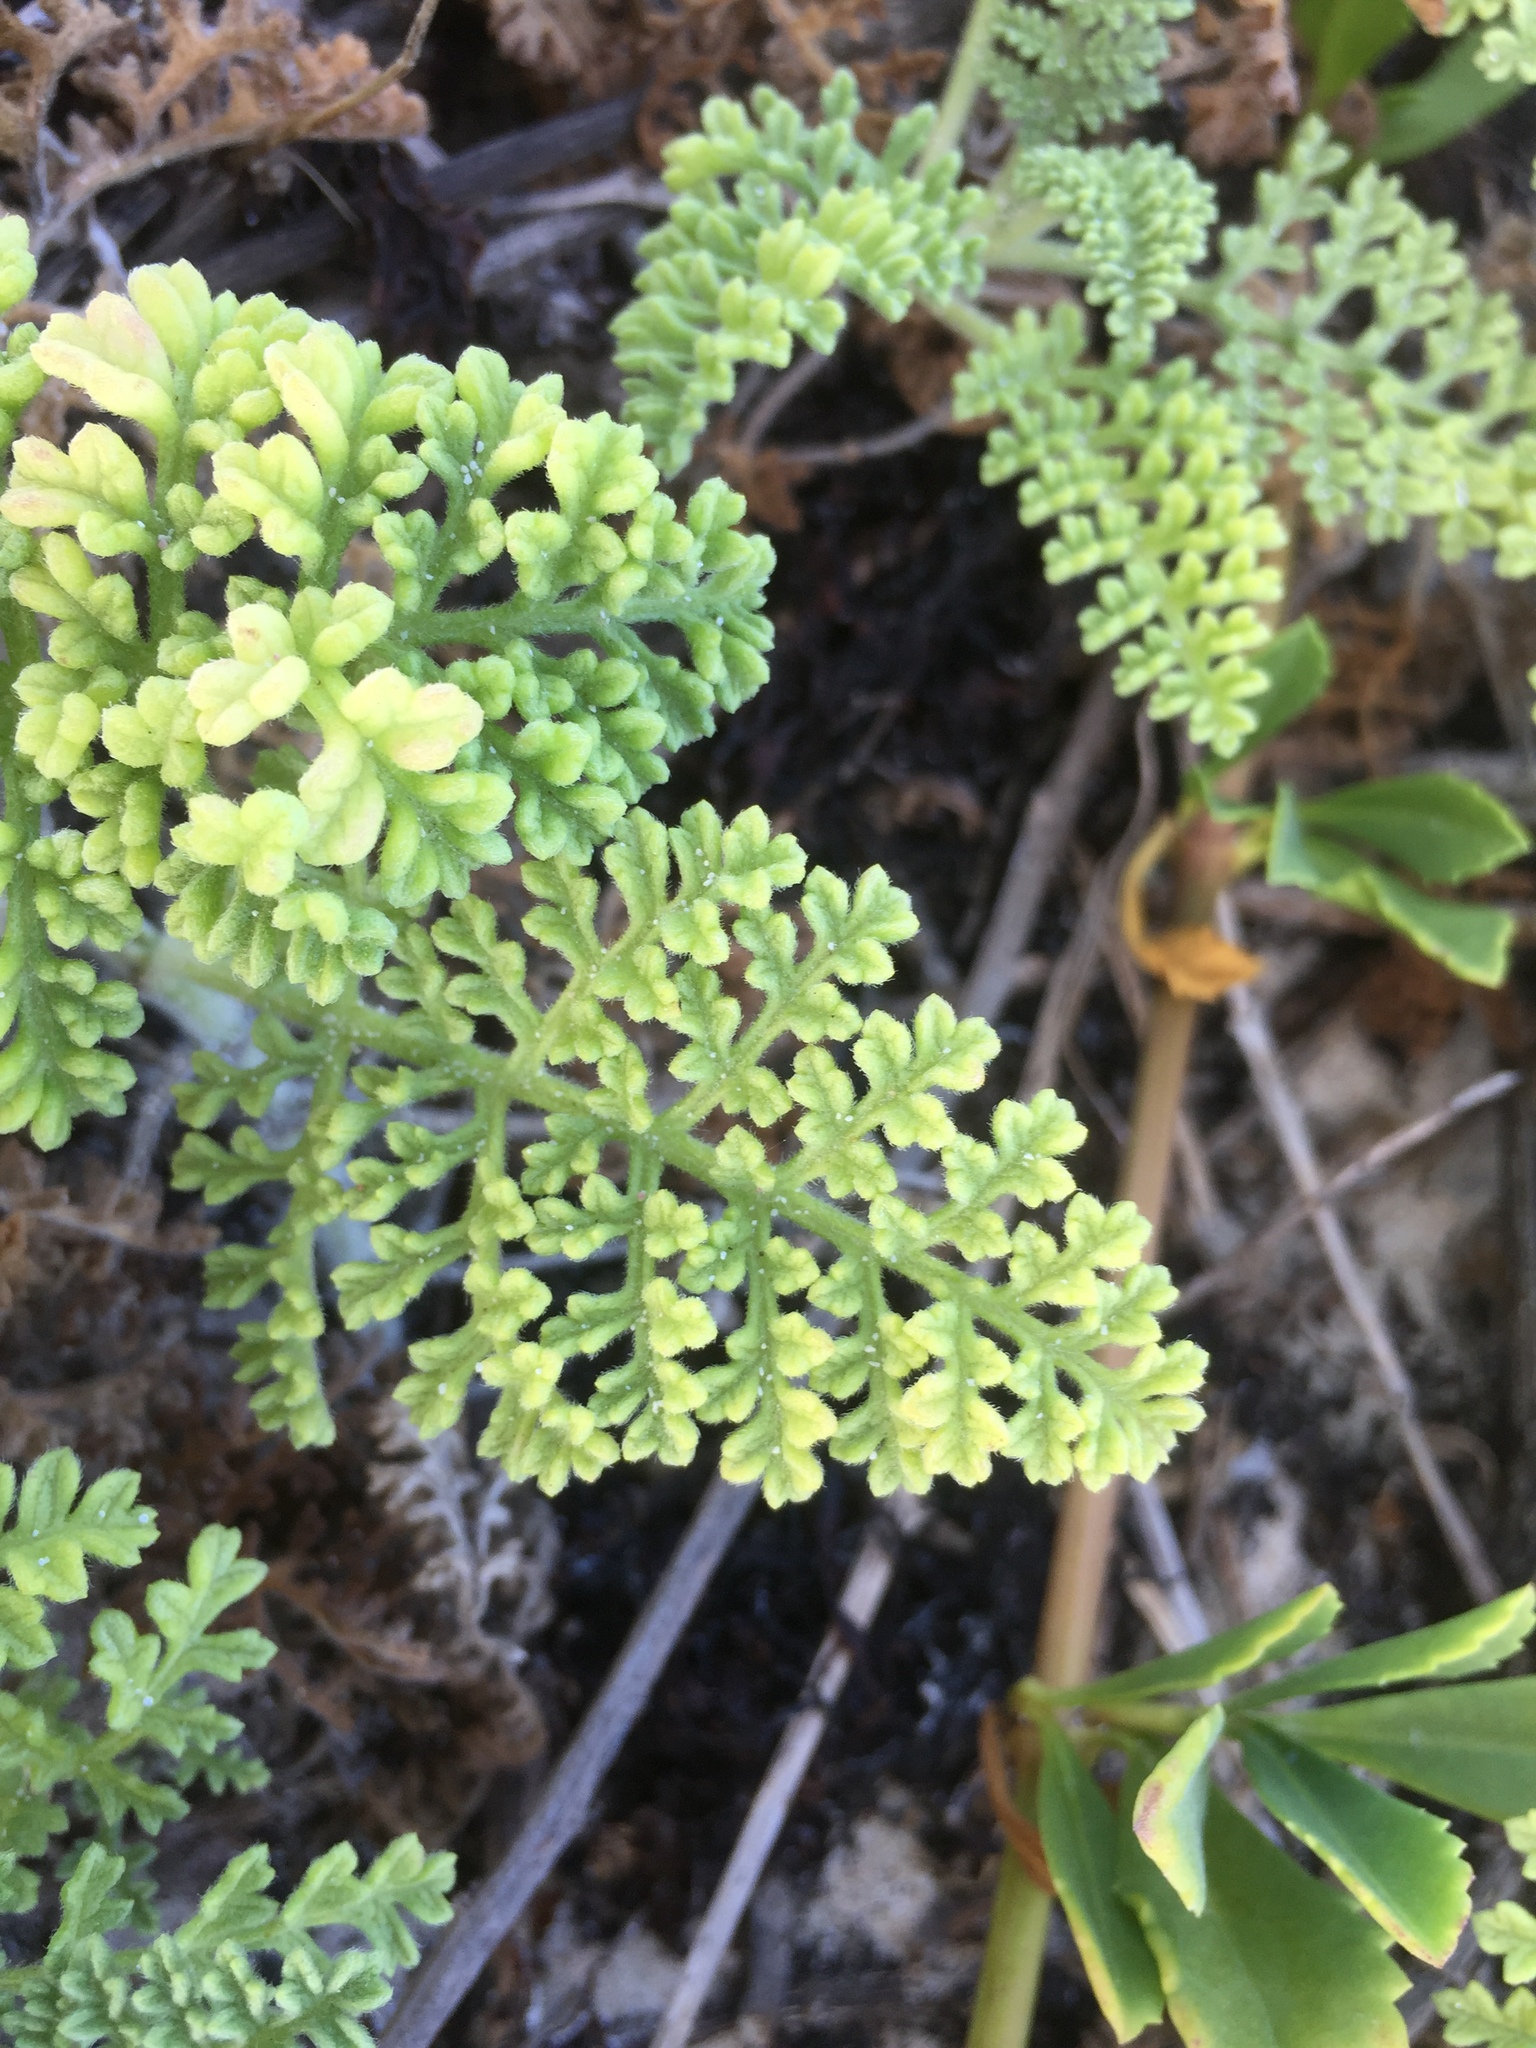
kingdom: Plantae
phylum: Tracheophyta
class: Magnoliopsida
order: Asterales
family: Asteraceae
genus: Ambrosia
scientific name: Ambrosia hispida
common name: Coastal ragweed
